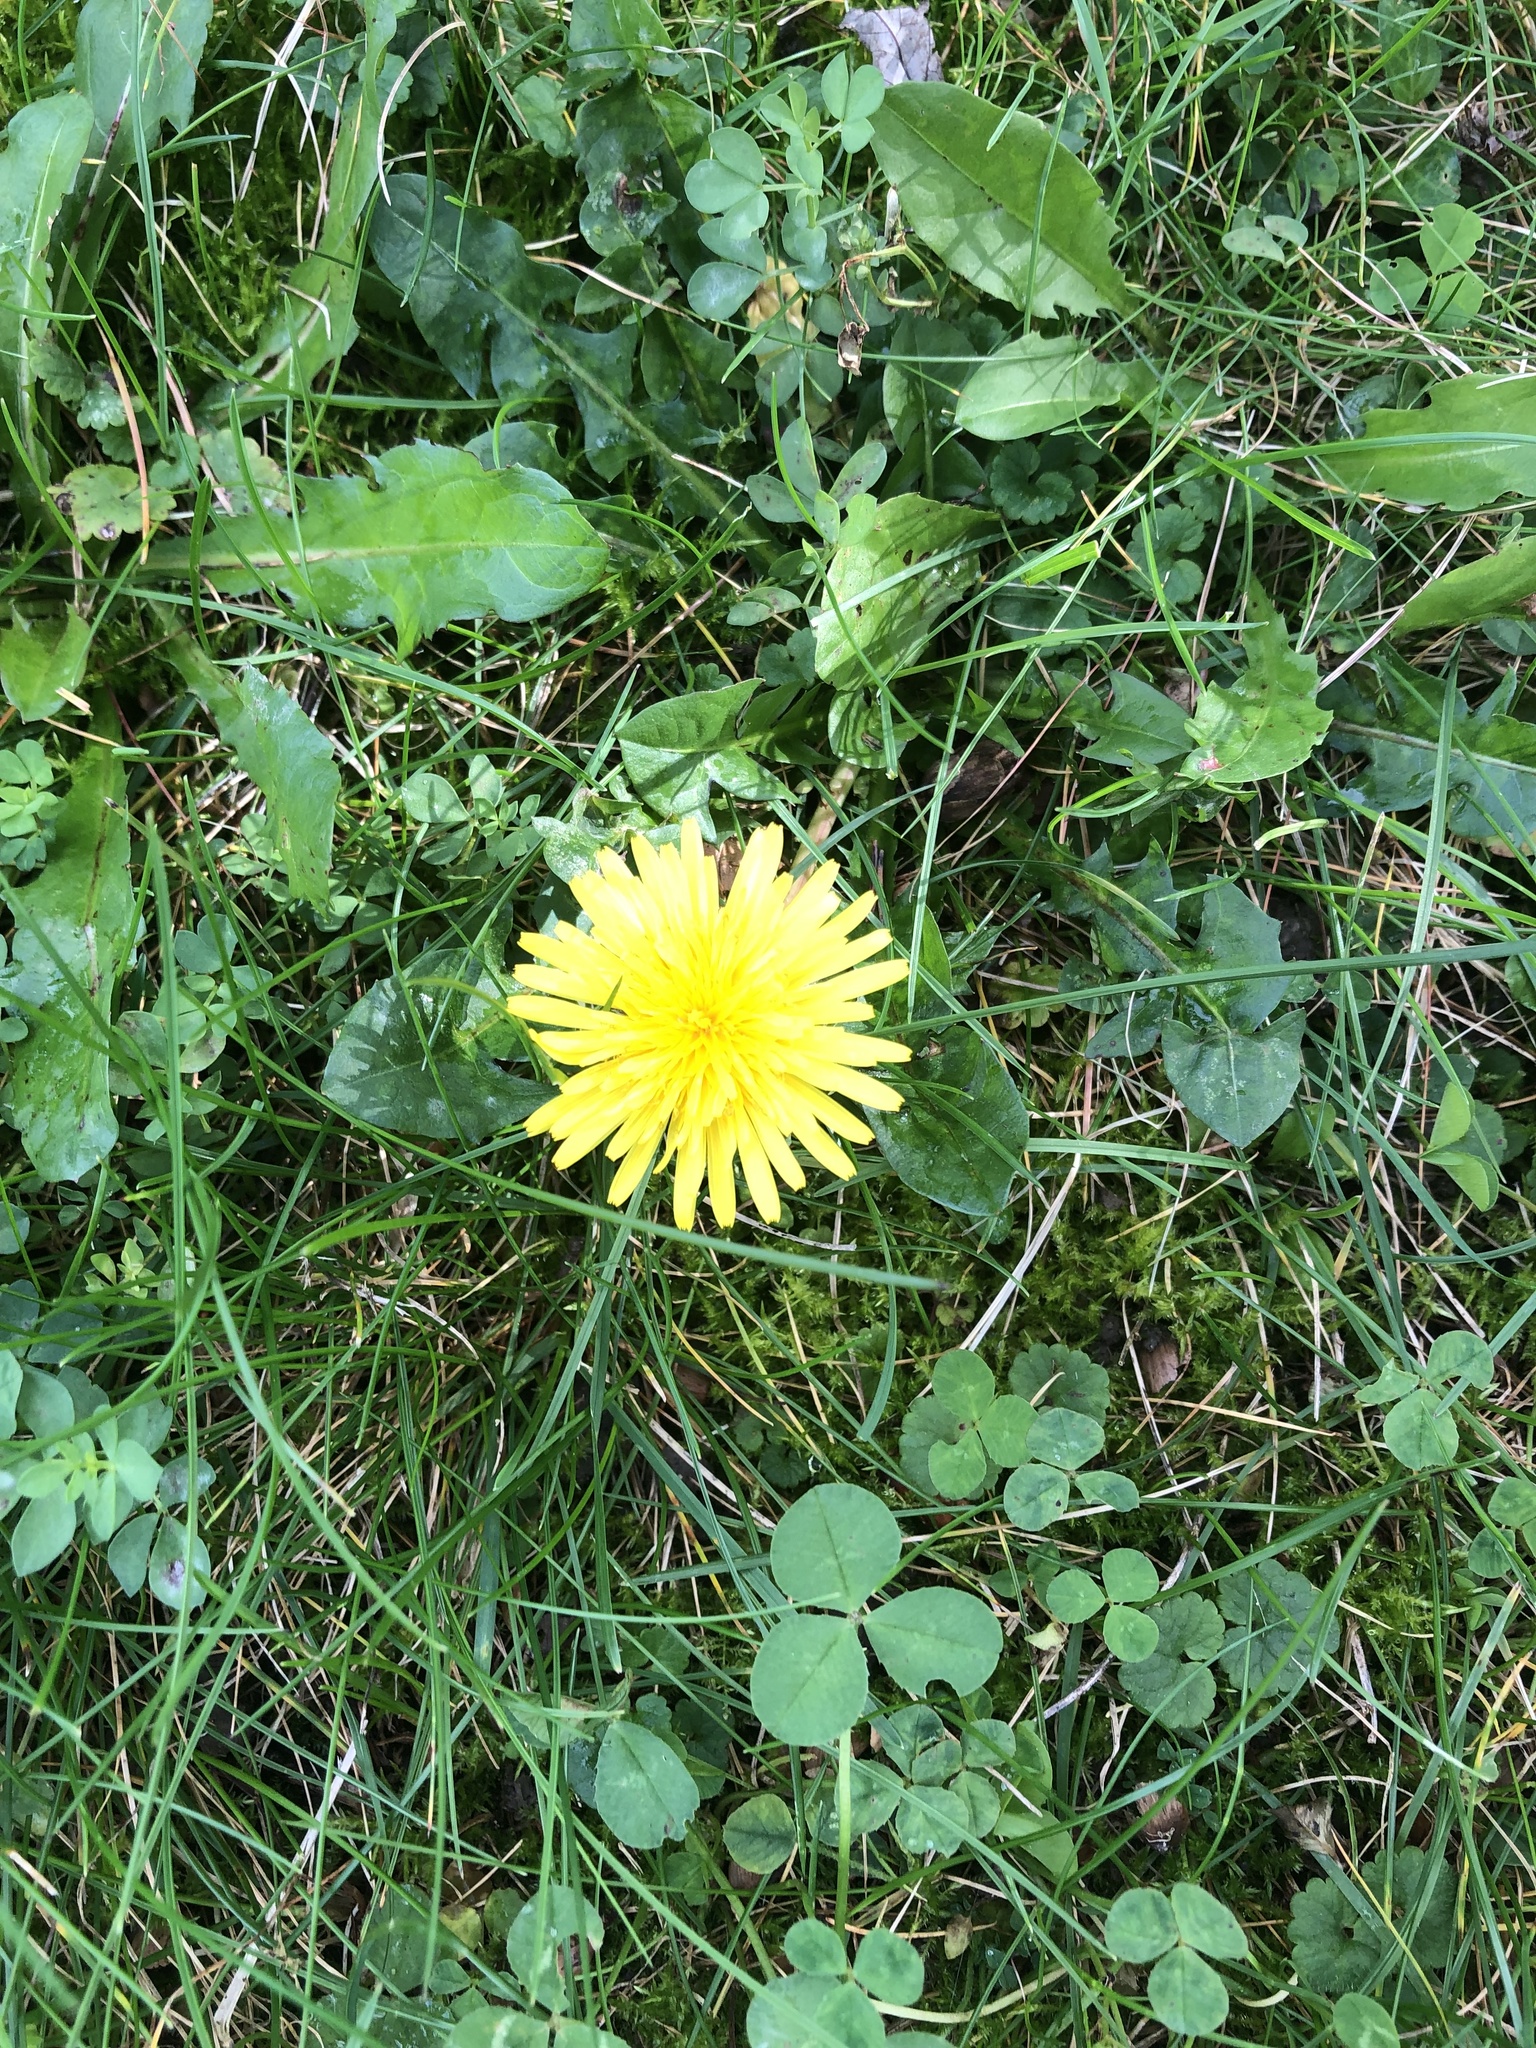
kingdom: Plantae
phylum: Tracheophyta
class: Magnoliopsida
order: Asterales
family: Asteraceae
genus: Taraxacum
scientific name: Taraxacum officinale
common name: Common dandelion
